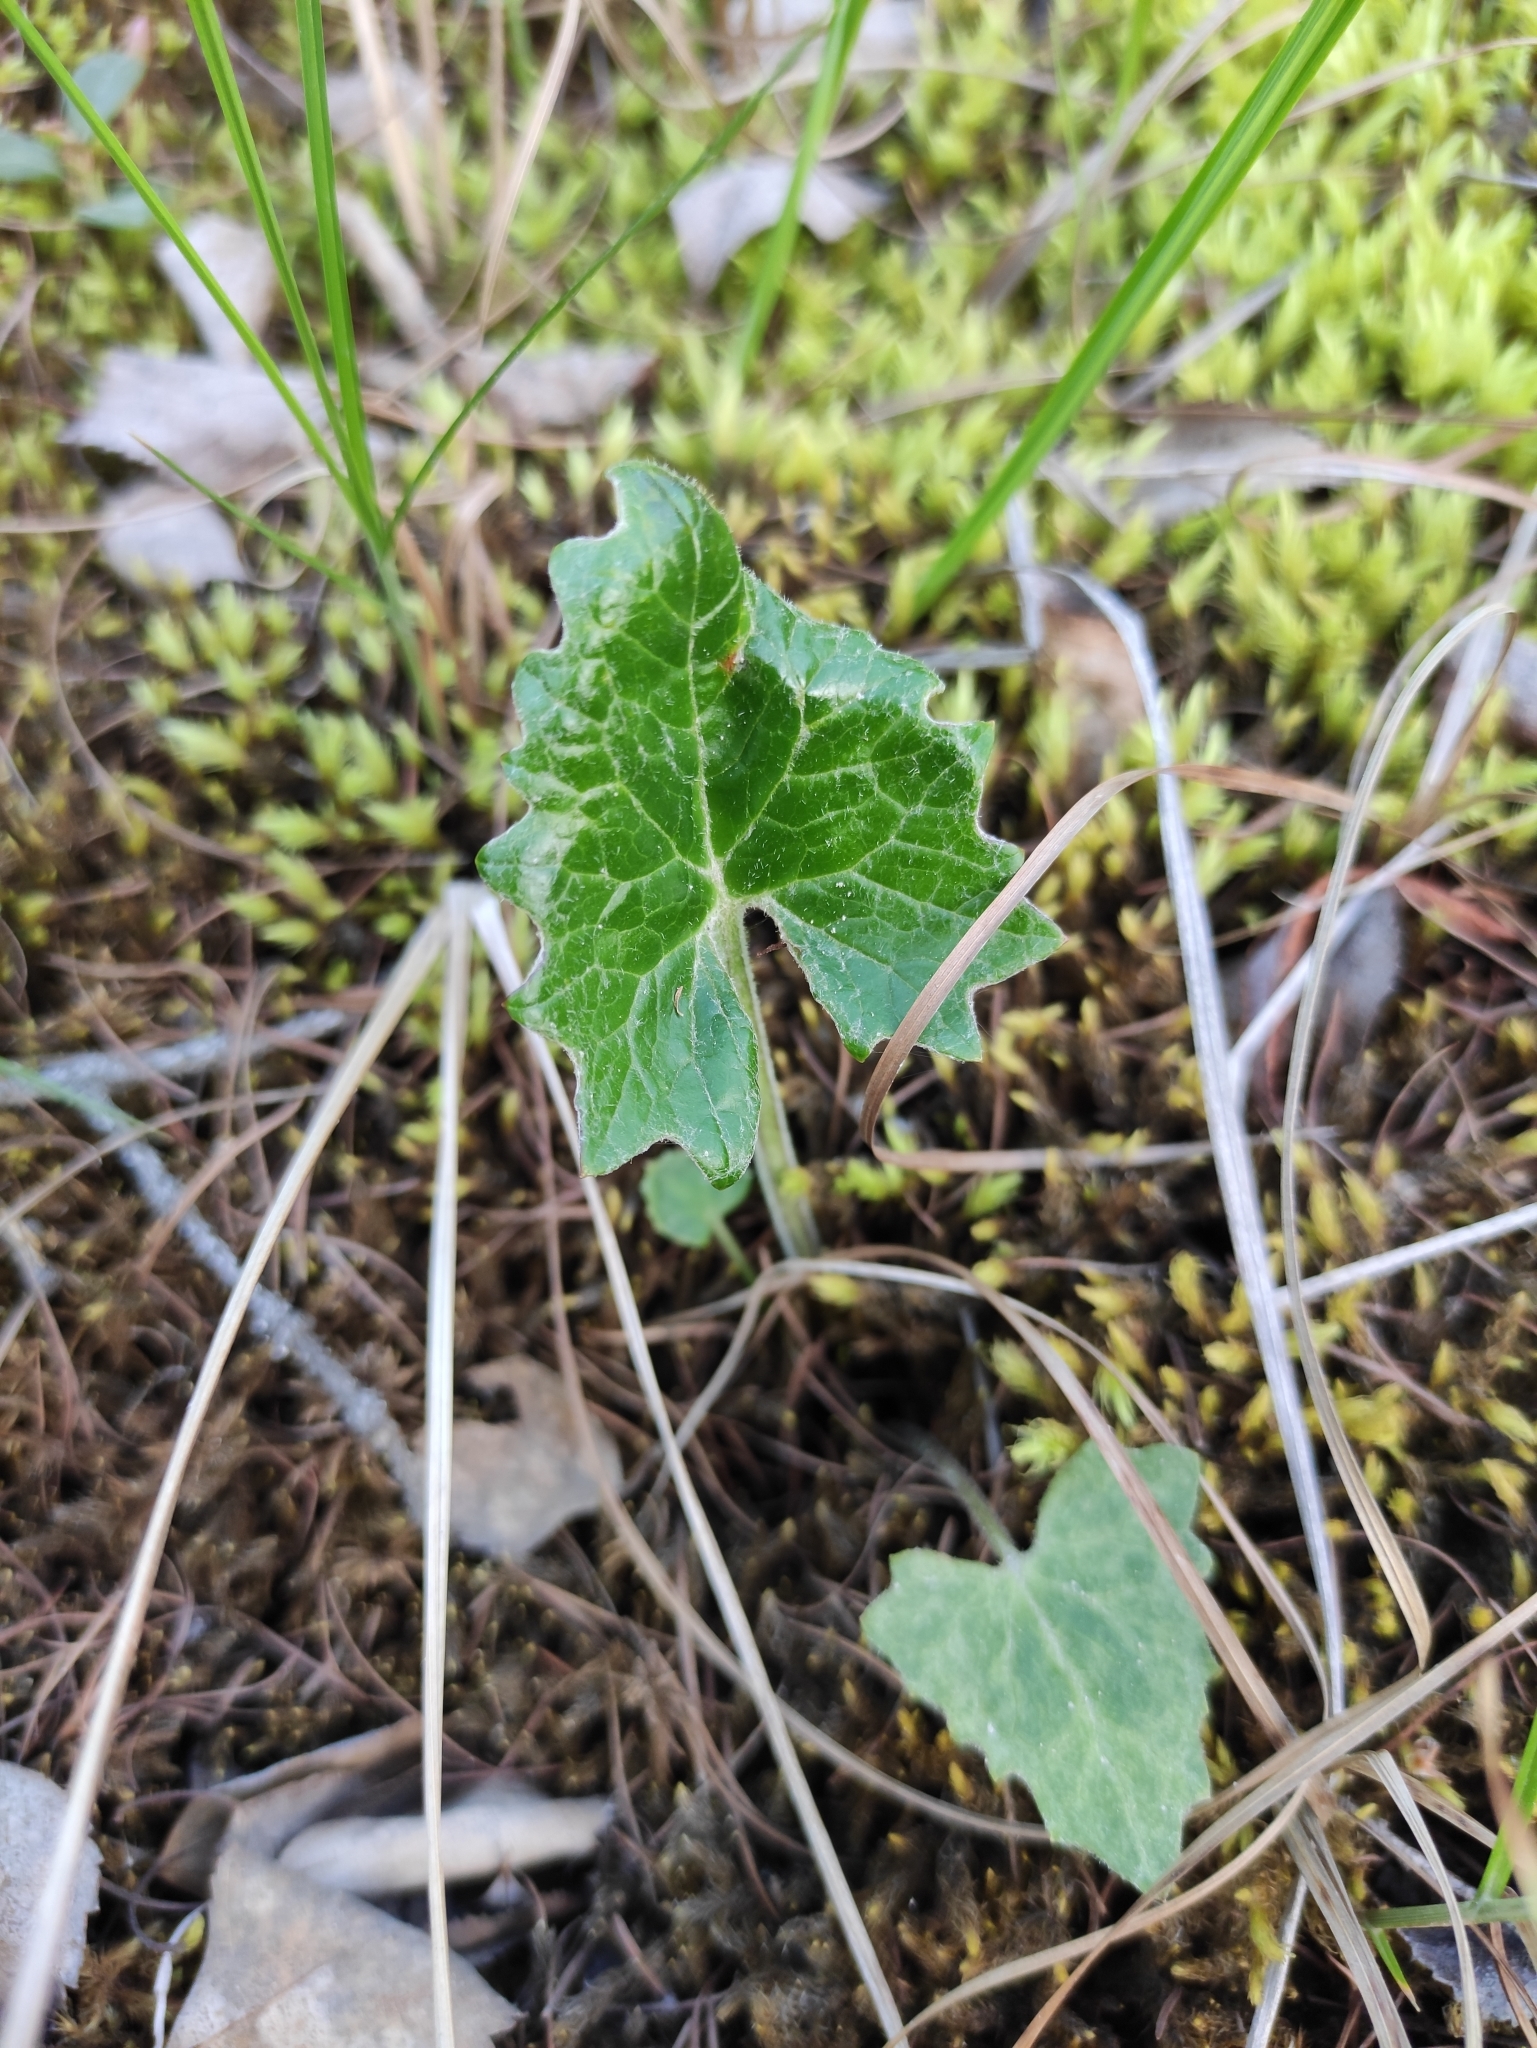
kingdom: Plantae
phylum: Tracheophyta
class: Magnoliopsida
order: Asterales
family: Asteraceae
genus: Petasites
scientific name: Petasites frigidus
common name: Arctic butterbur
